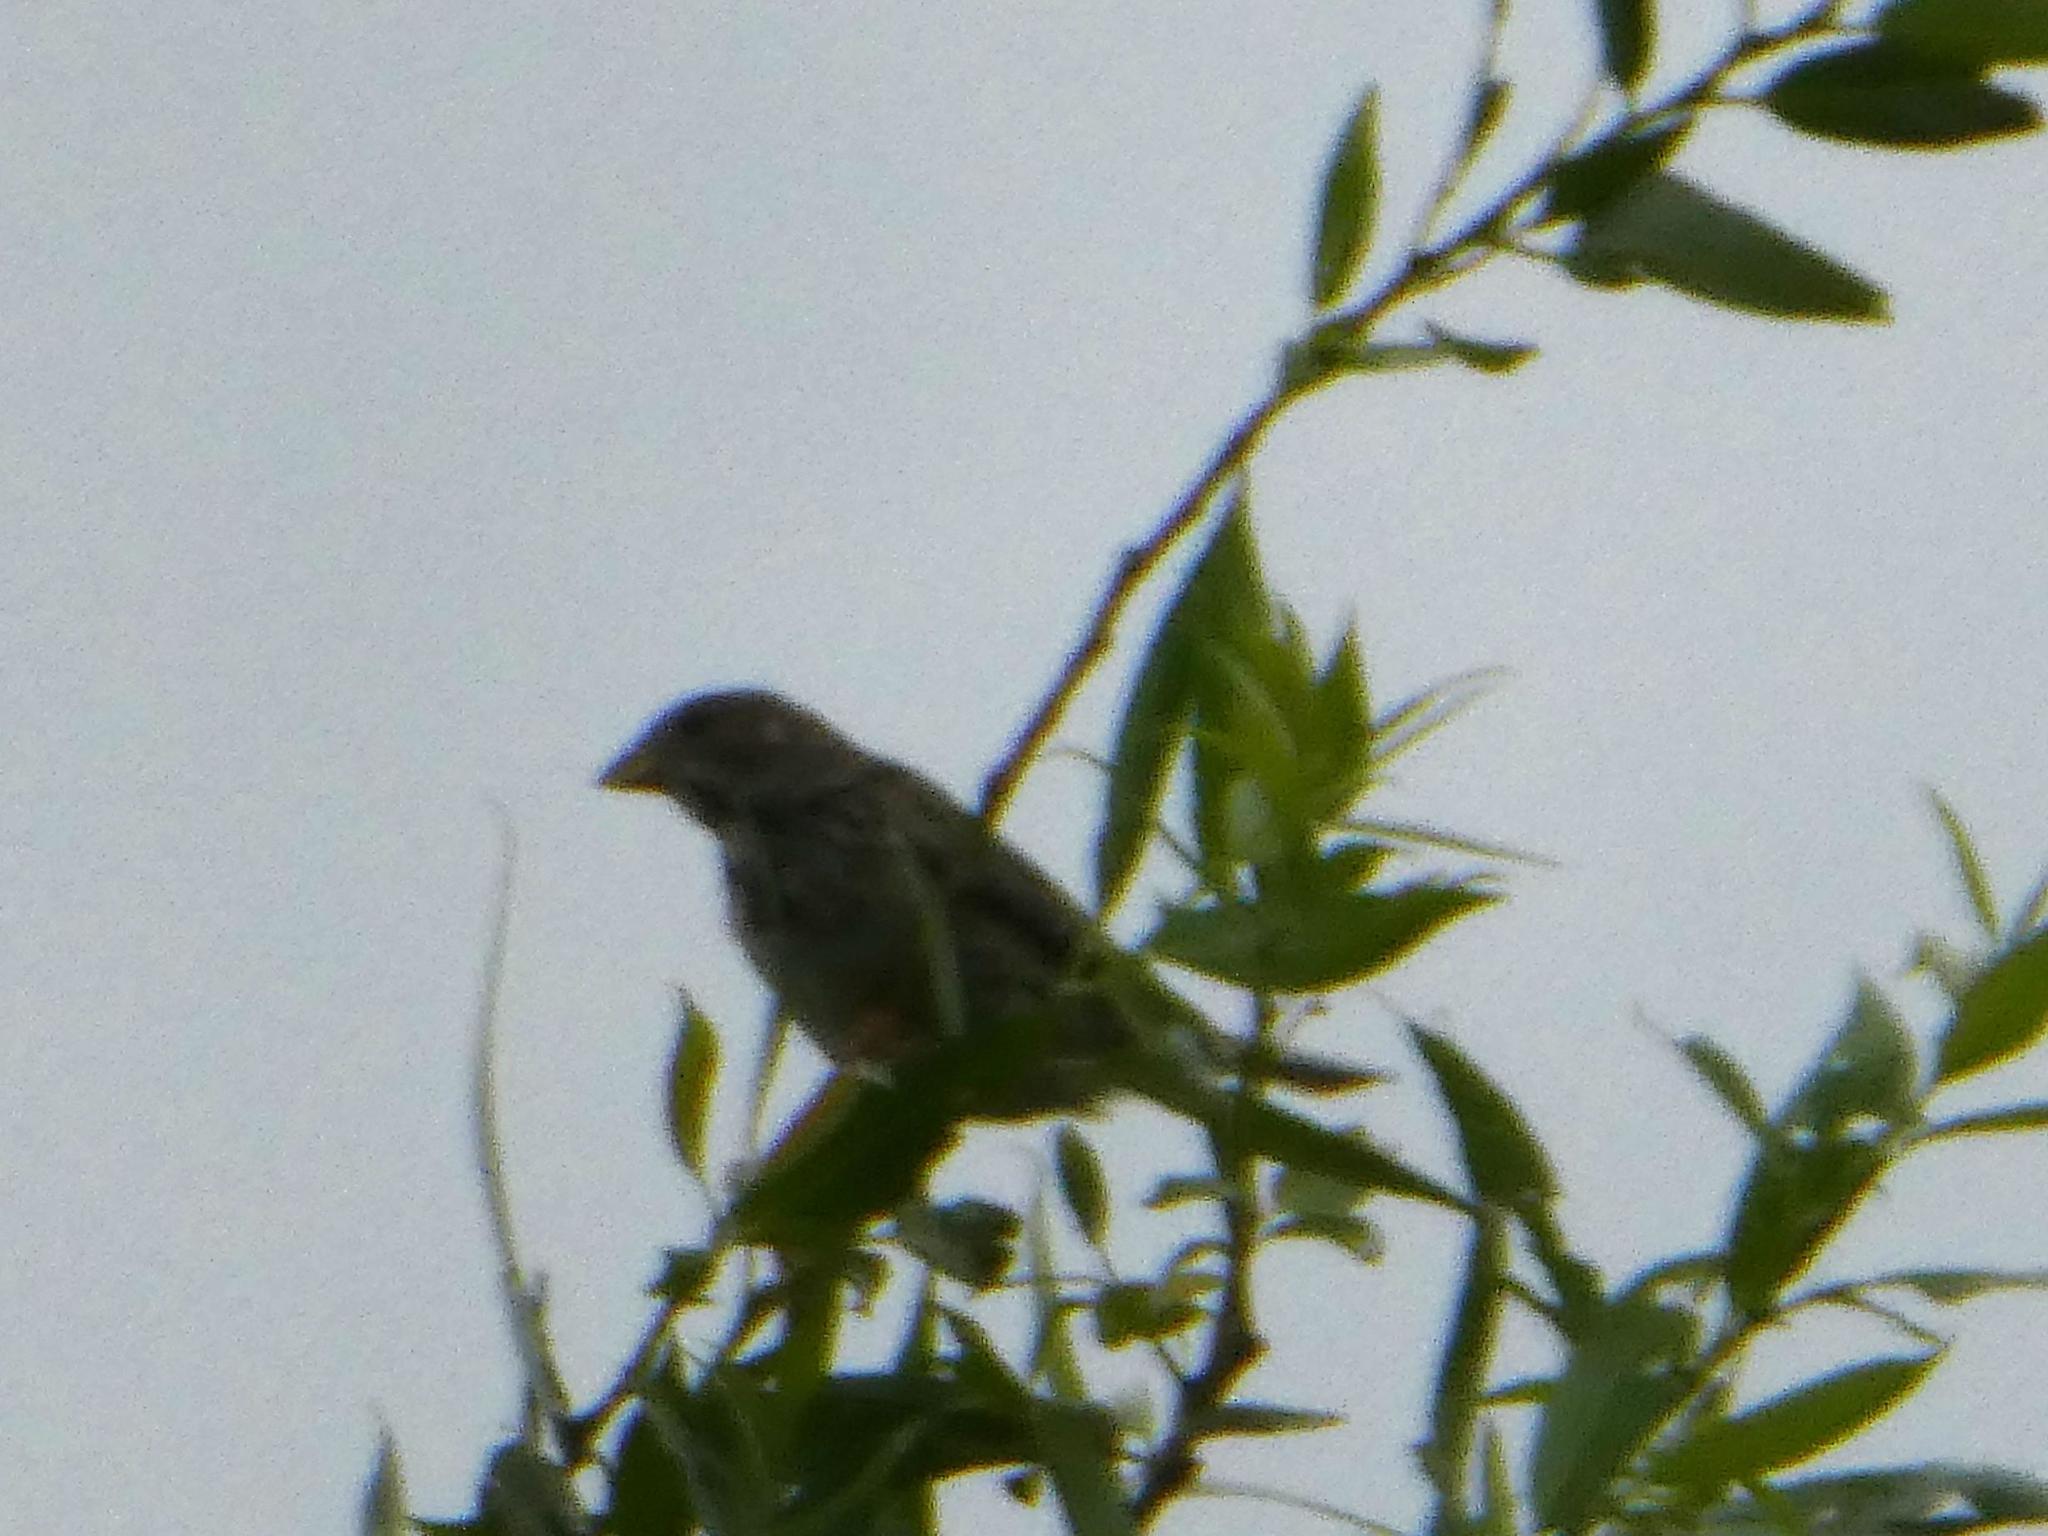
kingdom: Animalia
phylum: Chordata
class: Aves
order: Passeriformes
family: Emberizidae
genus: Emberiza
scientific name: Emberiza calandra
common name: Corn bunting
